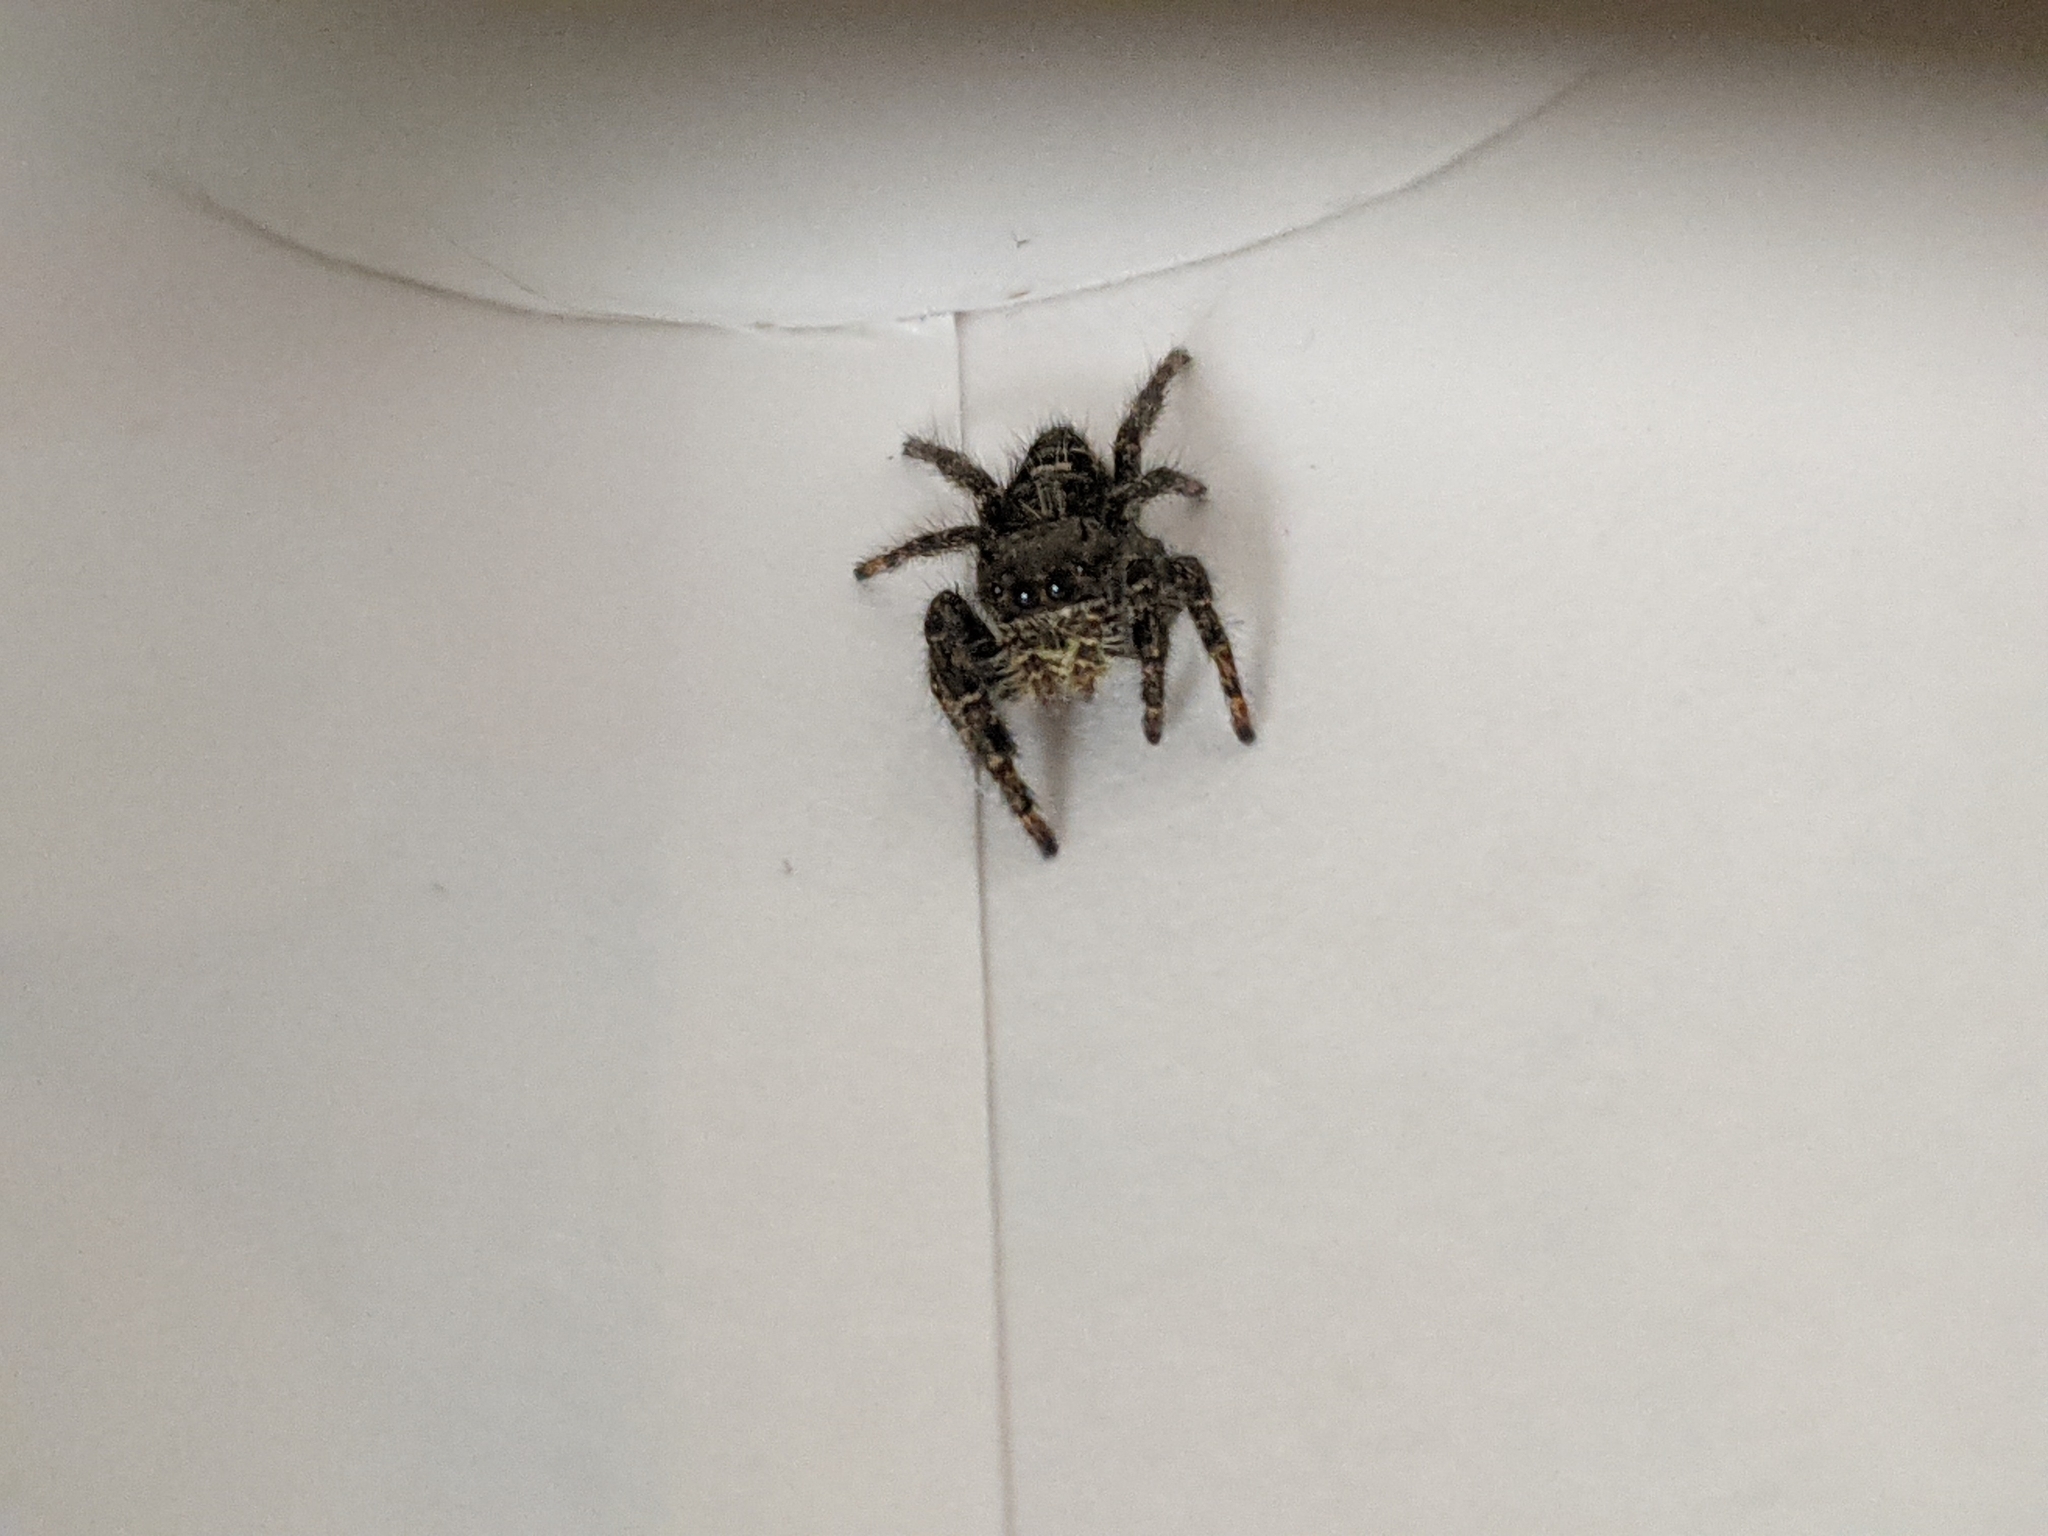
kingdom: Animalia
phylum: Arthropoda
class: Arachnida
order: Araneae
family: Salticidae
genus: Phidippus
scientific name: Phidippus audax
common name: Bold jumper
